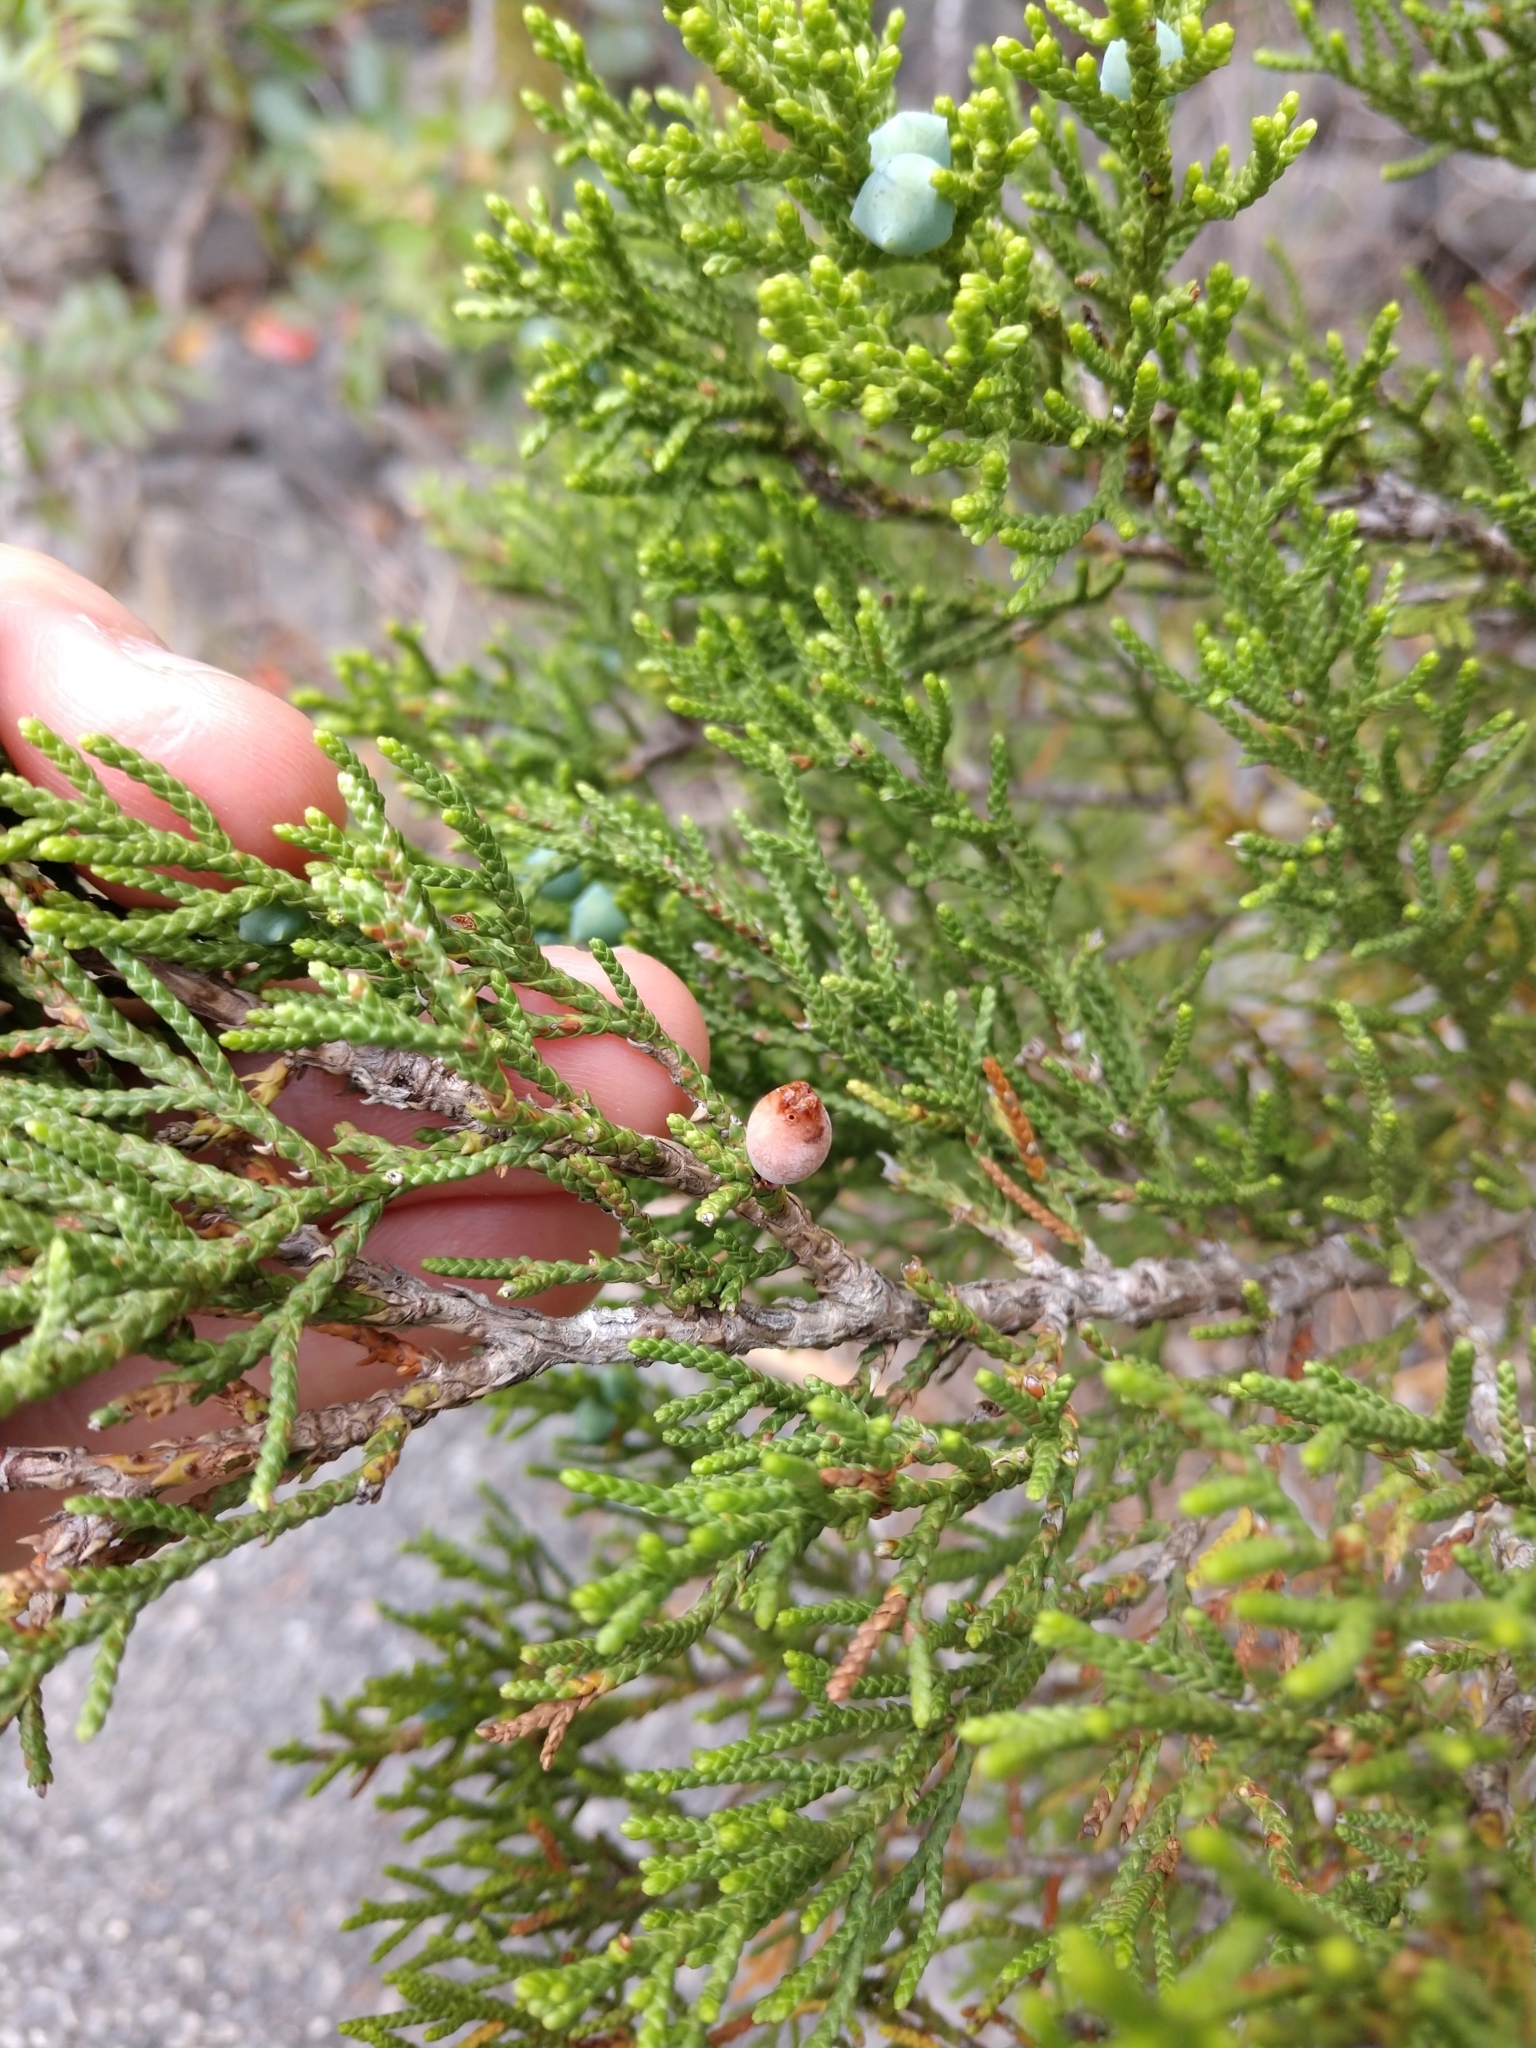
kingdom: Animalia
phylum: Arthropoda
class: Insecta
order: Diptera
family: Cecidomyiidae
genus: Walshomyia
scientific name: Walshomyia texana
